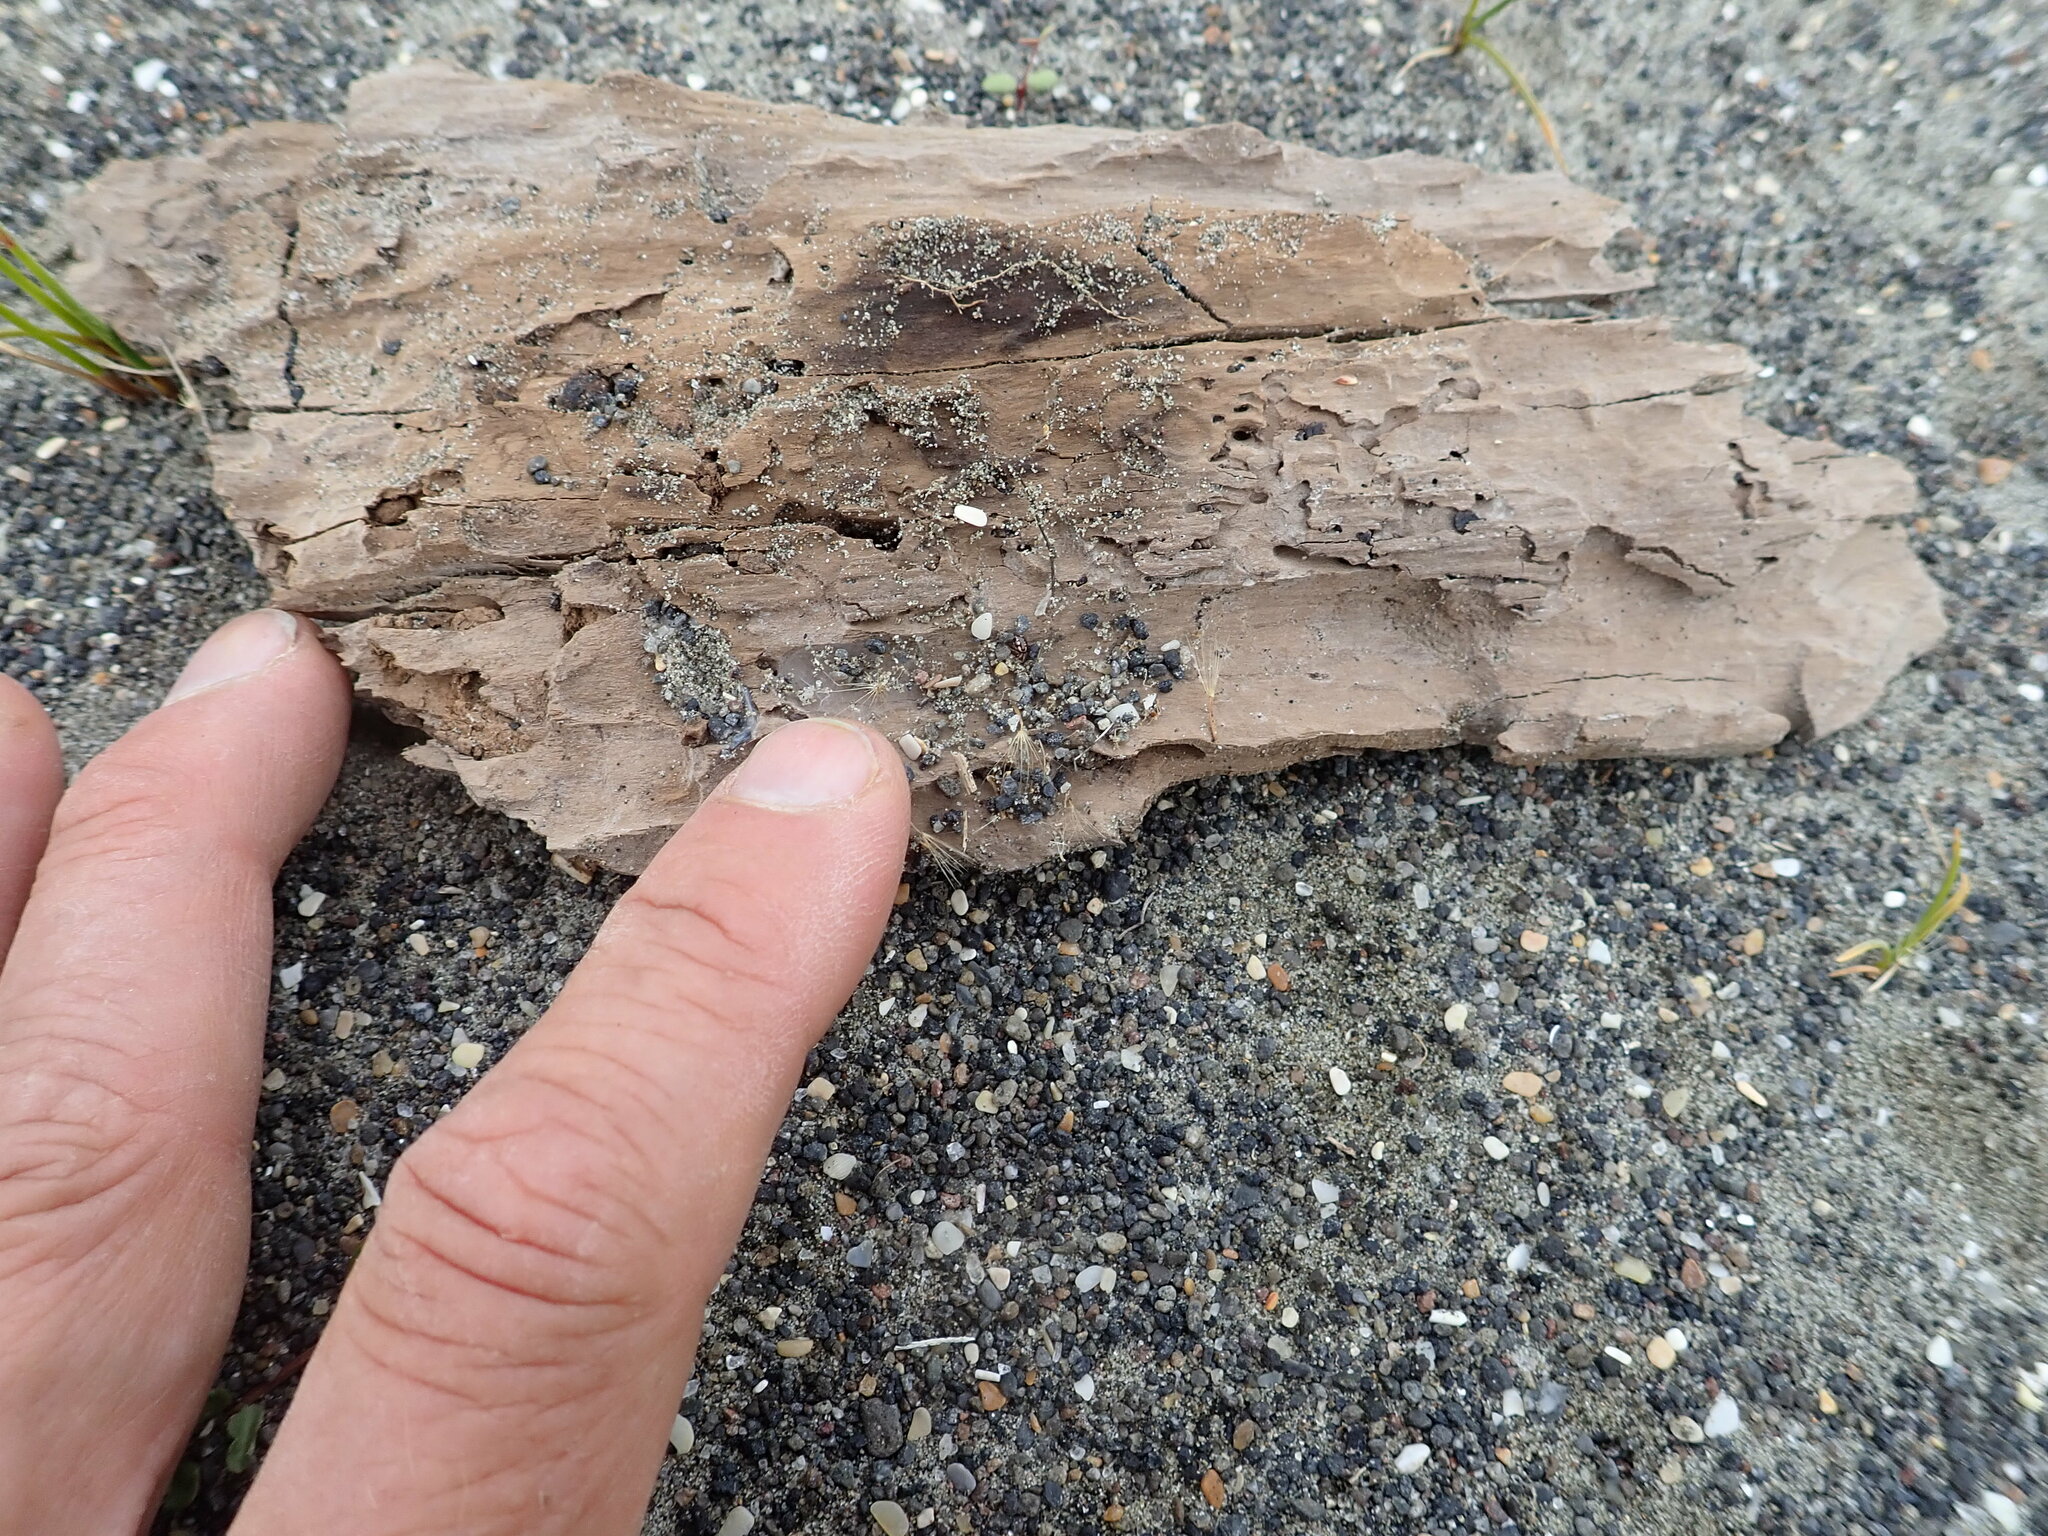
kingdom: Animalia
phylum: Arthropoda
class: Arachnida
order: Araneae
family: Theridiidae
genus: Steatoda
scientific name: Steatoda lepida
